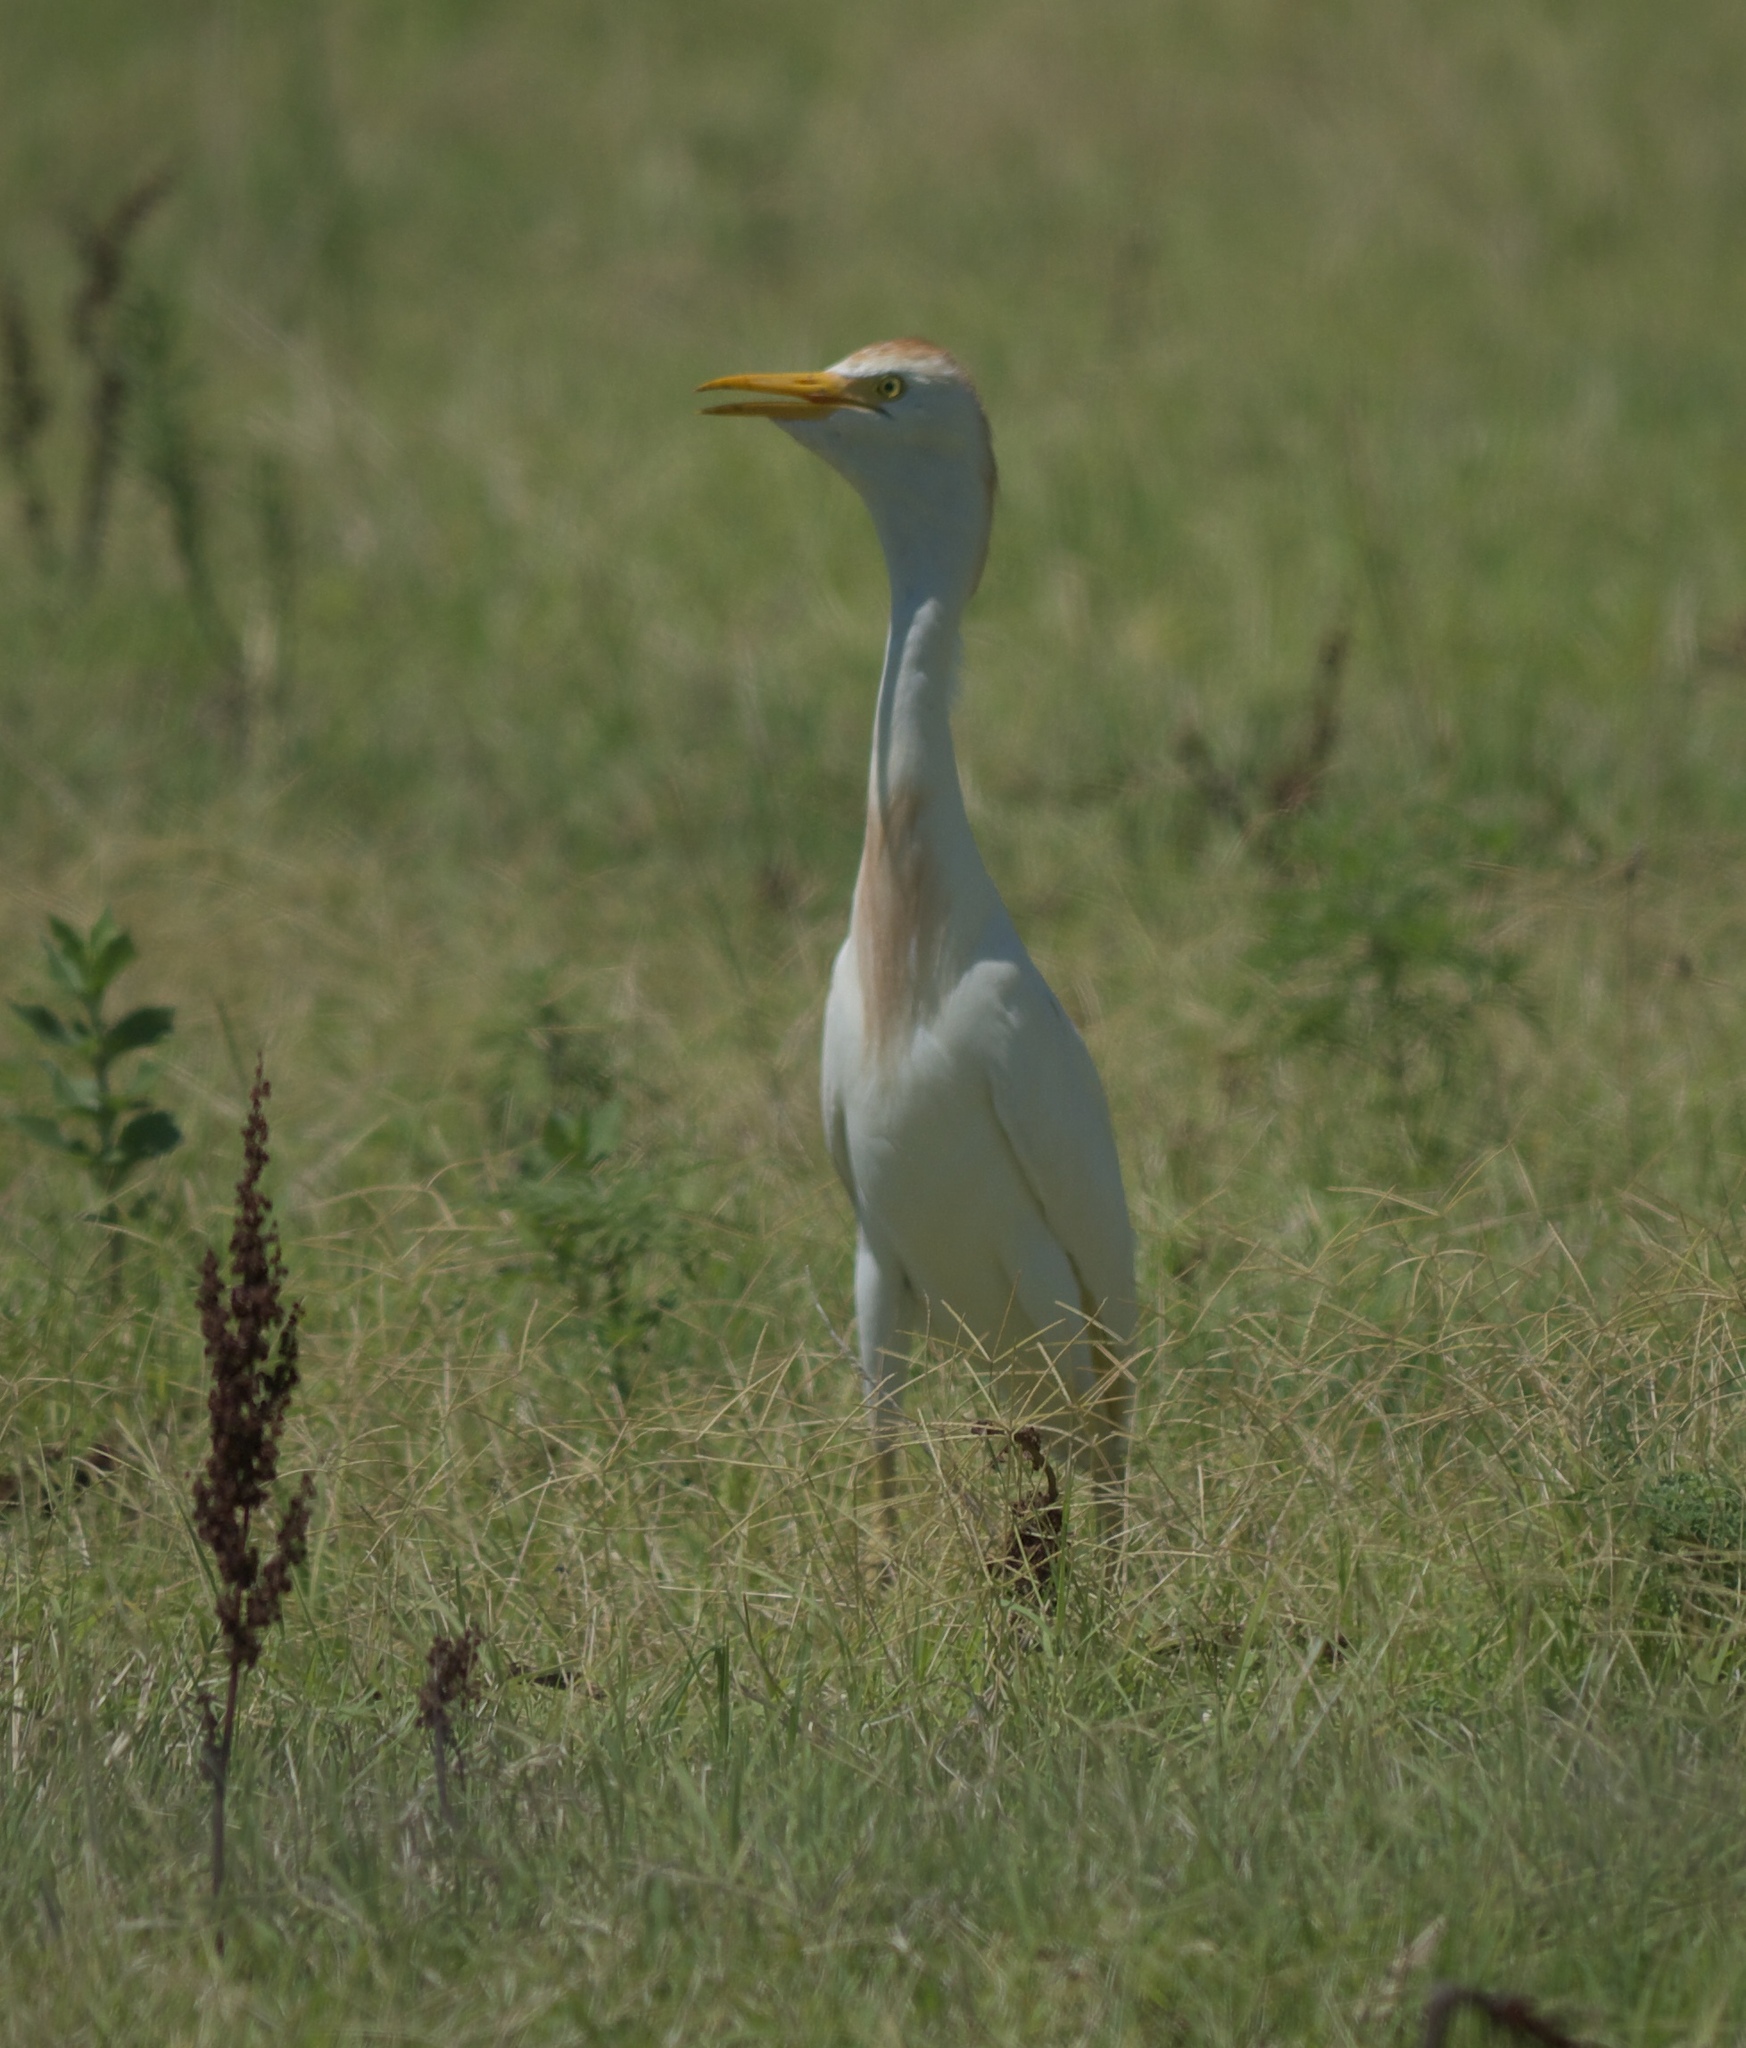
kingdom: Animalia
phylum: Chordata
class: Aves
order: Pelecaniformes
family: Ardeidae
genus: Bubulcus
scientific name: Bubulcus ibis
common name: Cattle egret
